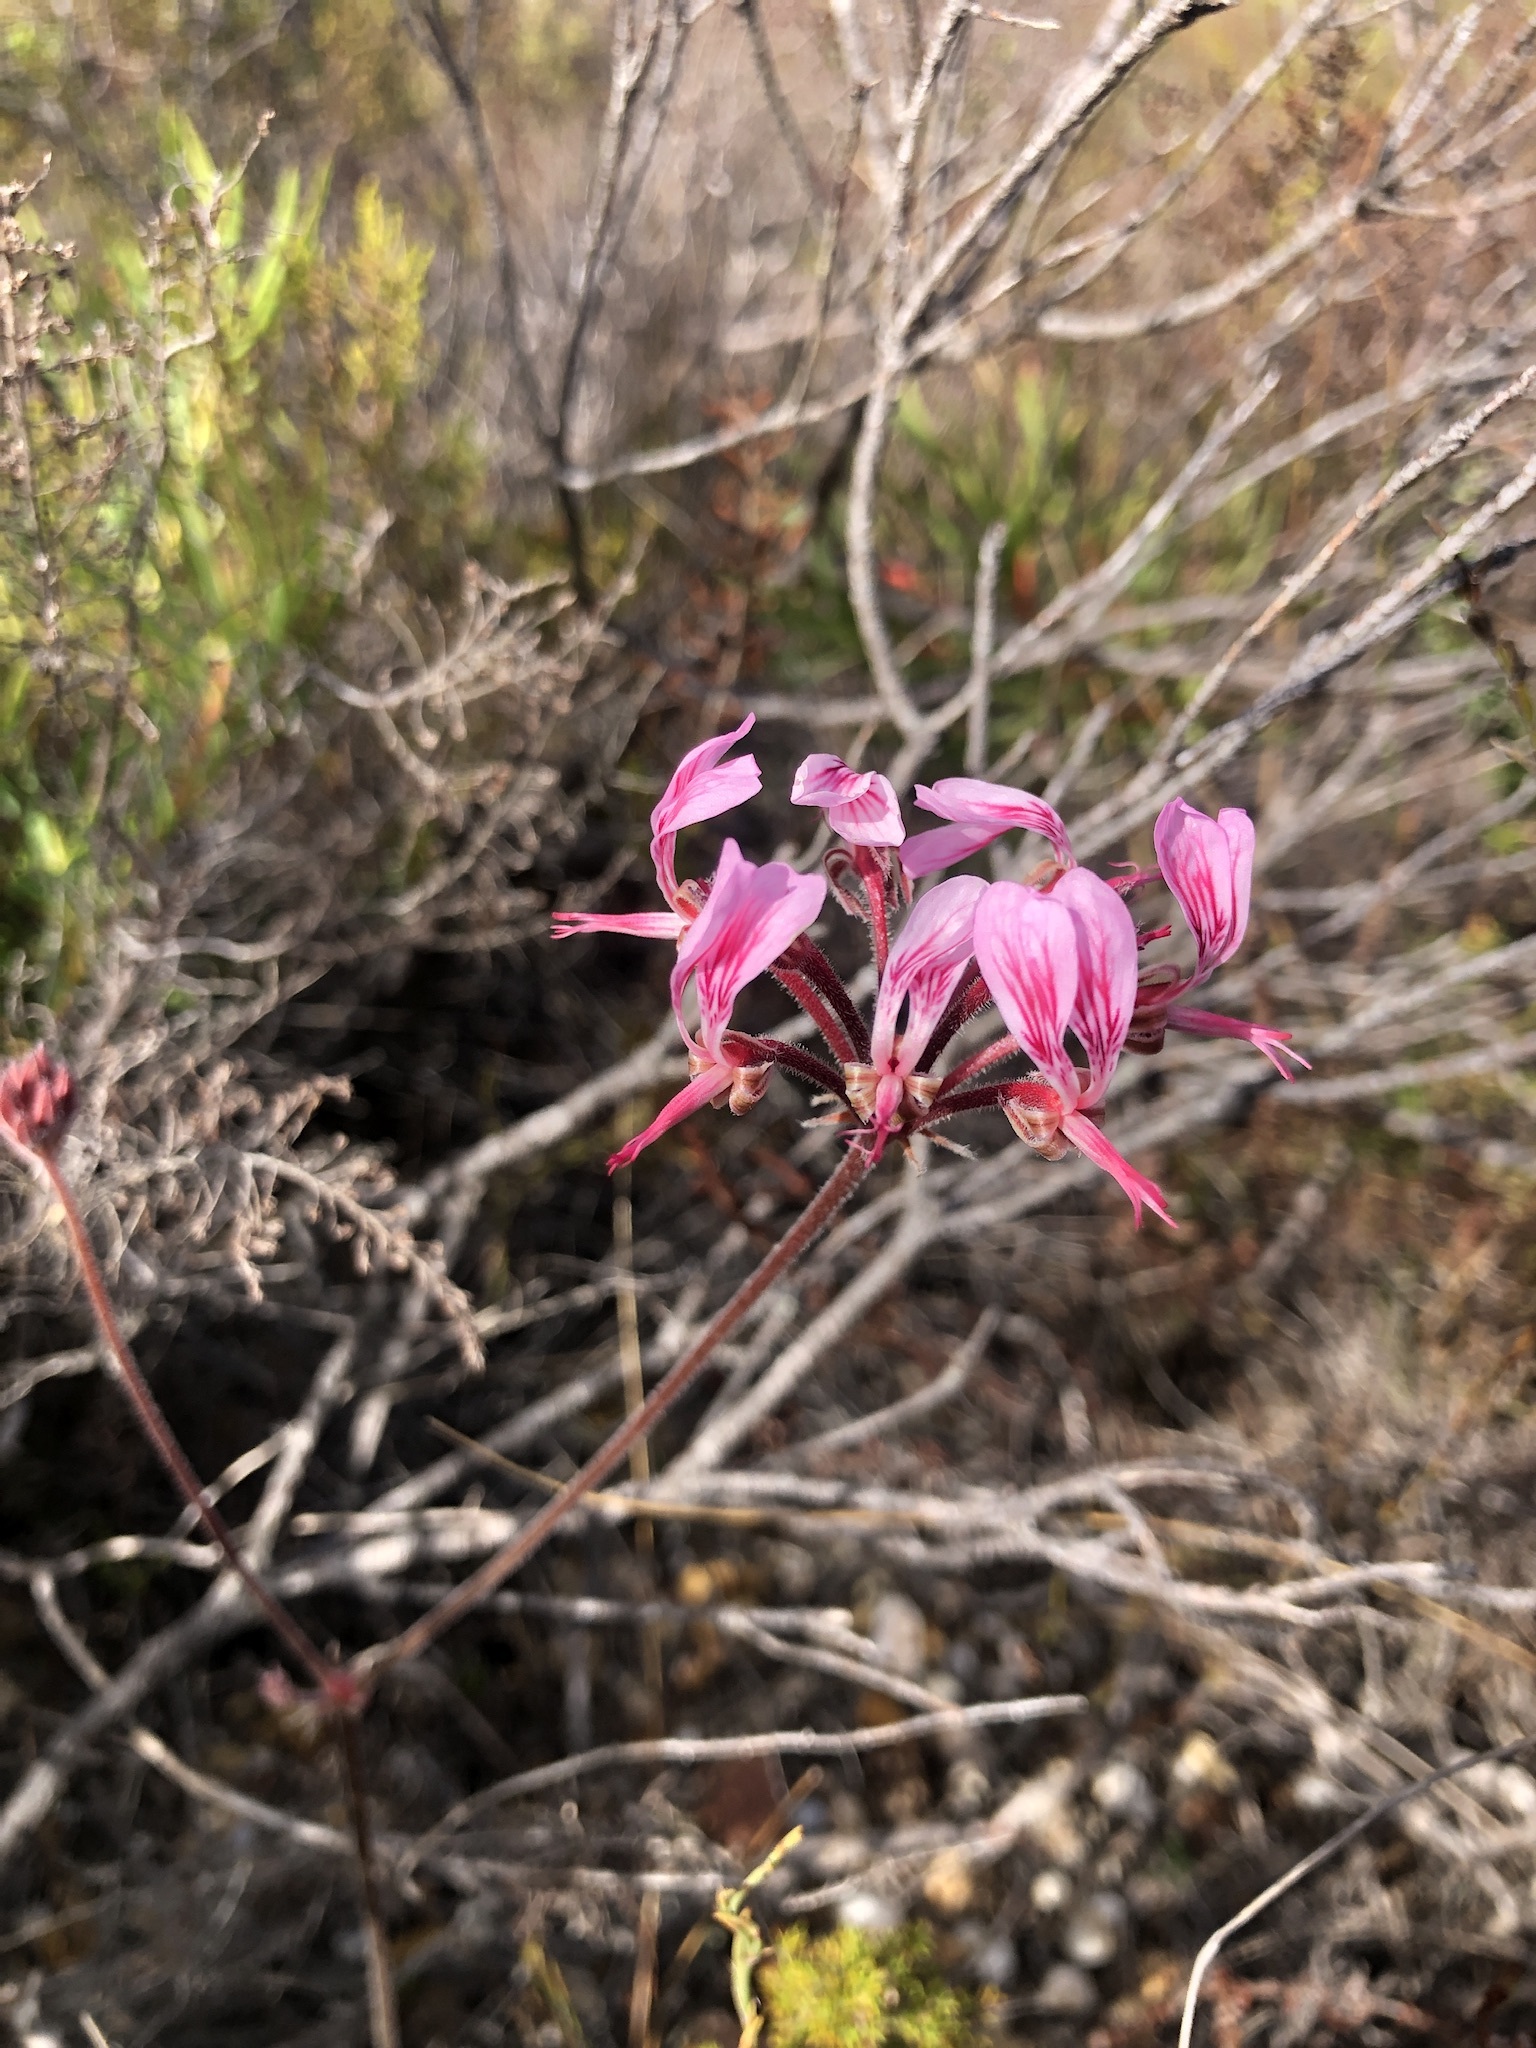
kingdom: Plantae
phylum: Tracheophyta
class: Magnoliopsida
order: Geraniales
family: Geraniaceae
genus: Pelargonium
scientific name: Pelargonium dipetalum
